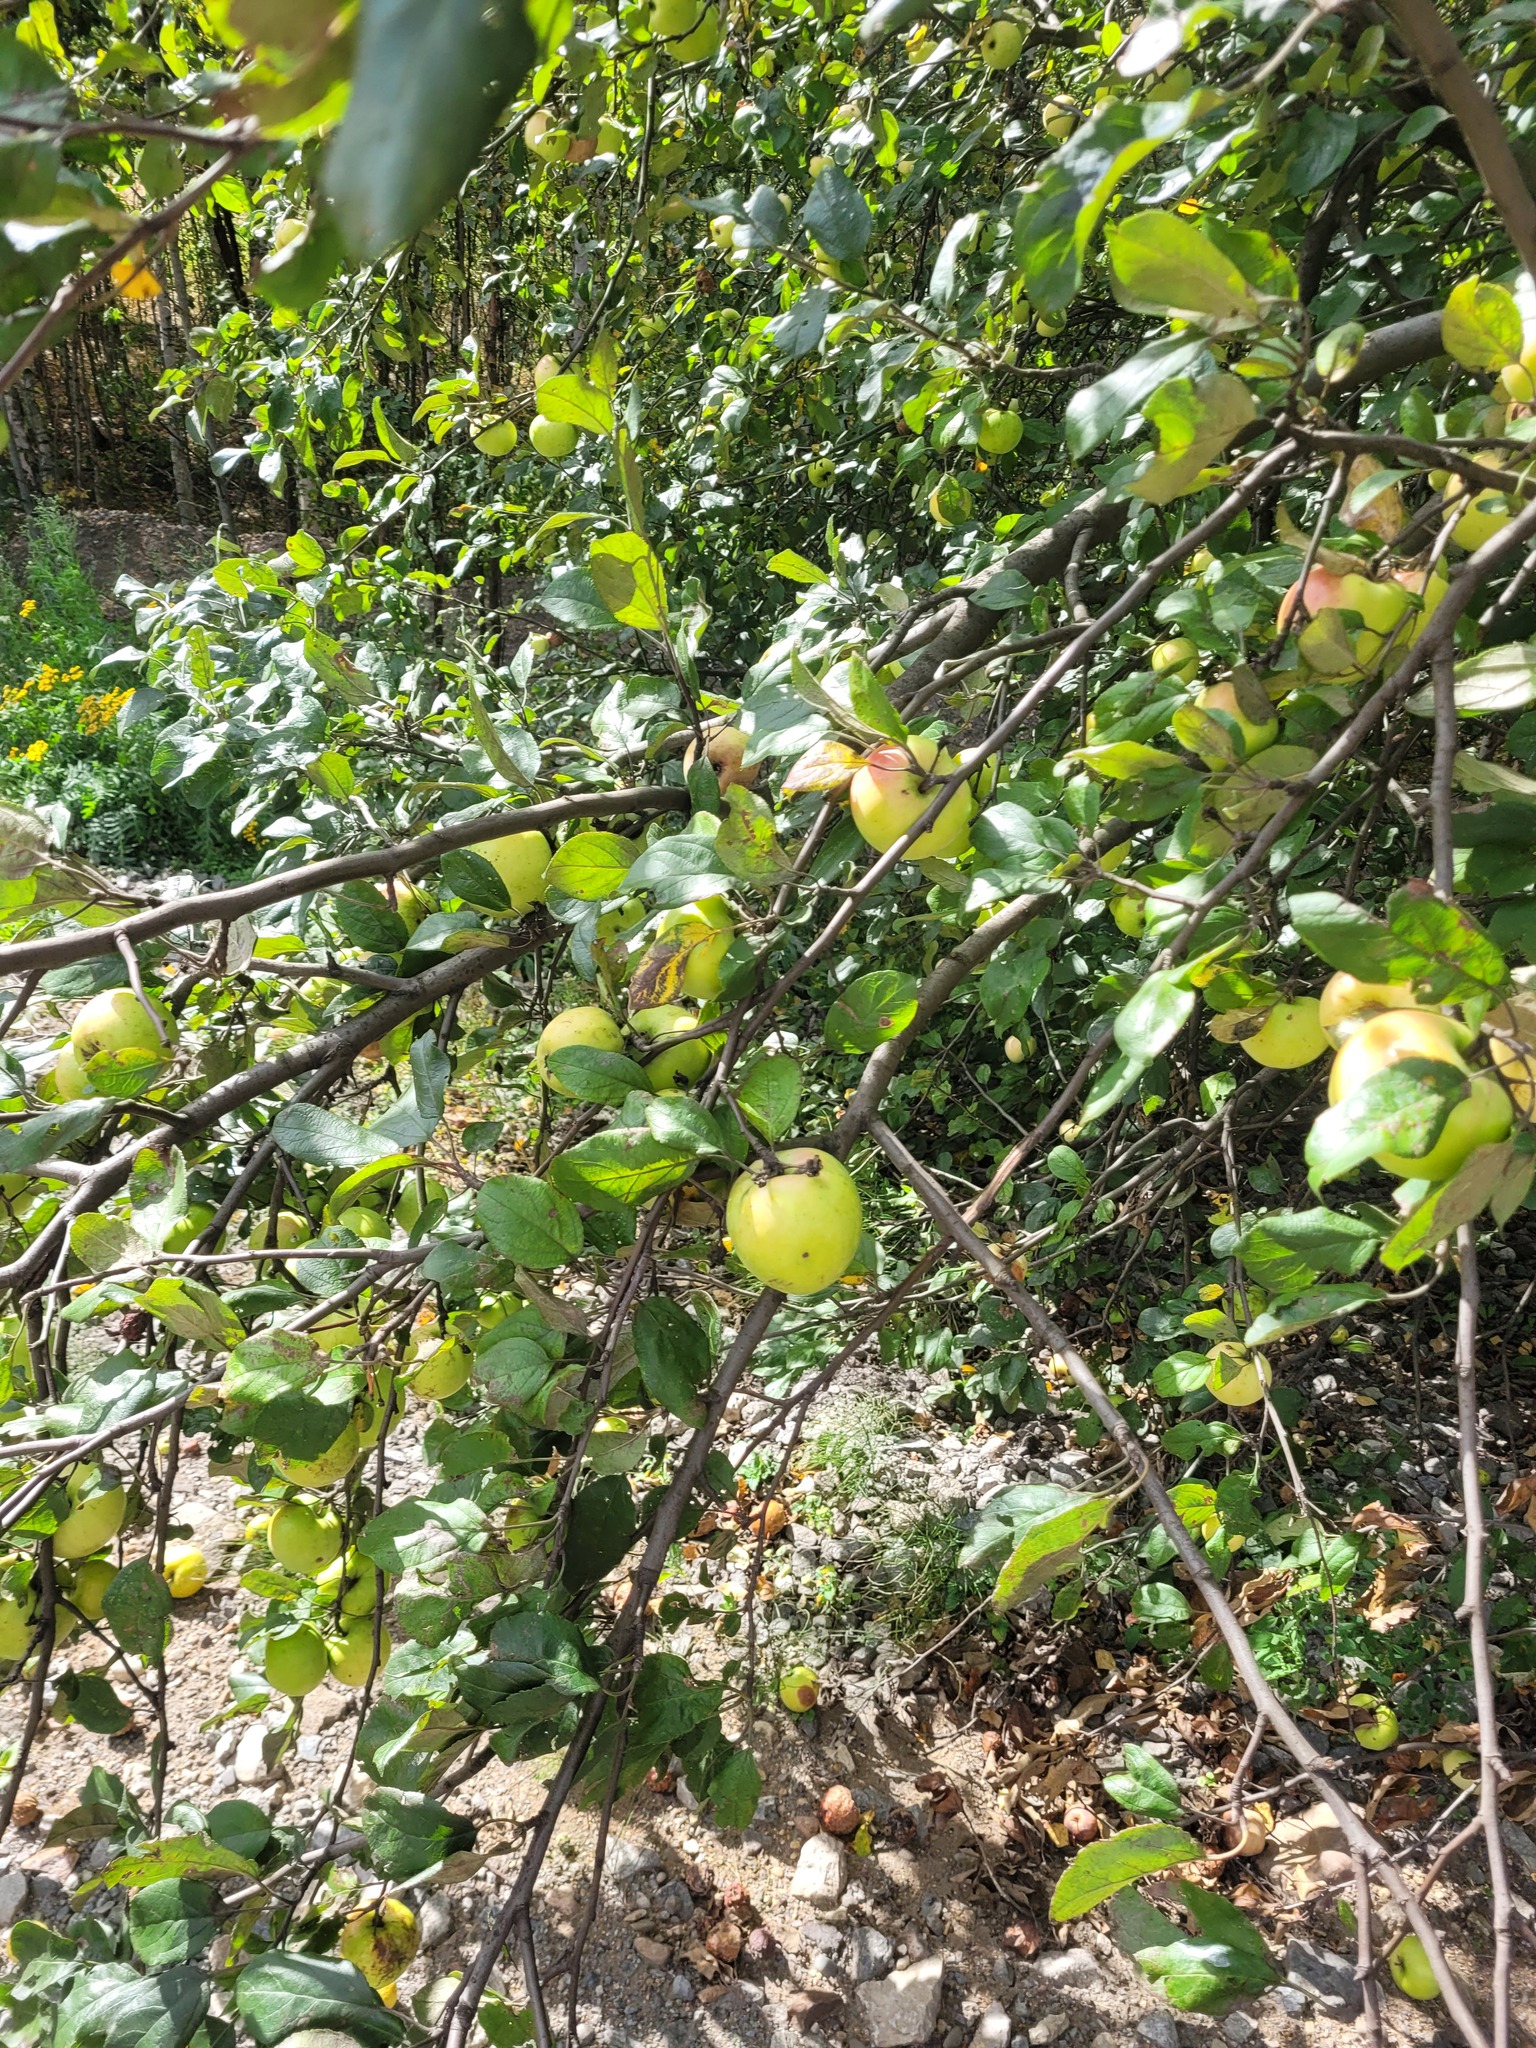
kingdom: Plantae
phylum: Tracheophyta
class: Magnoliopsida
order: Rosales
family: Rosaceae
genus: Malus
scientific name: Malus domestica
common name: Apple
